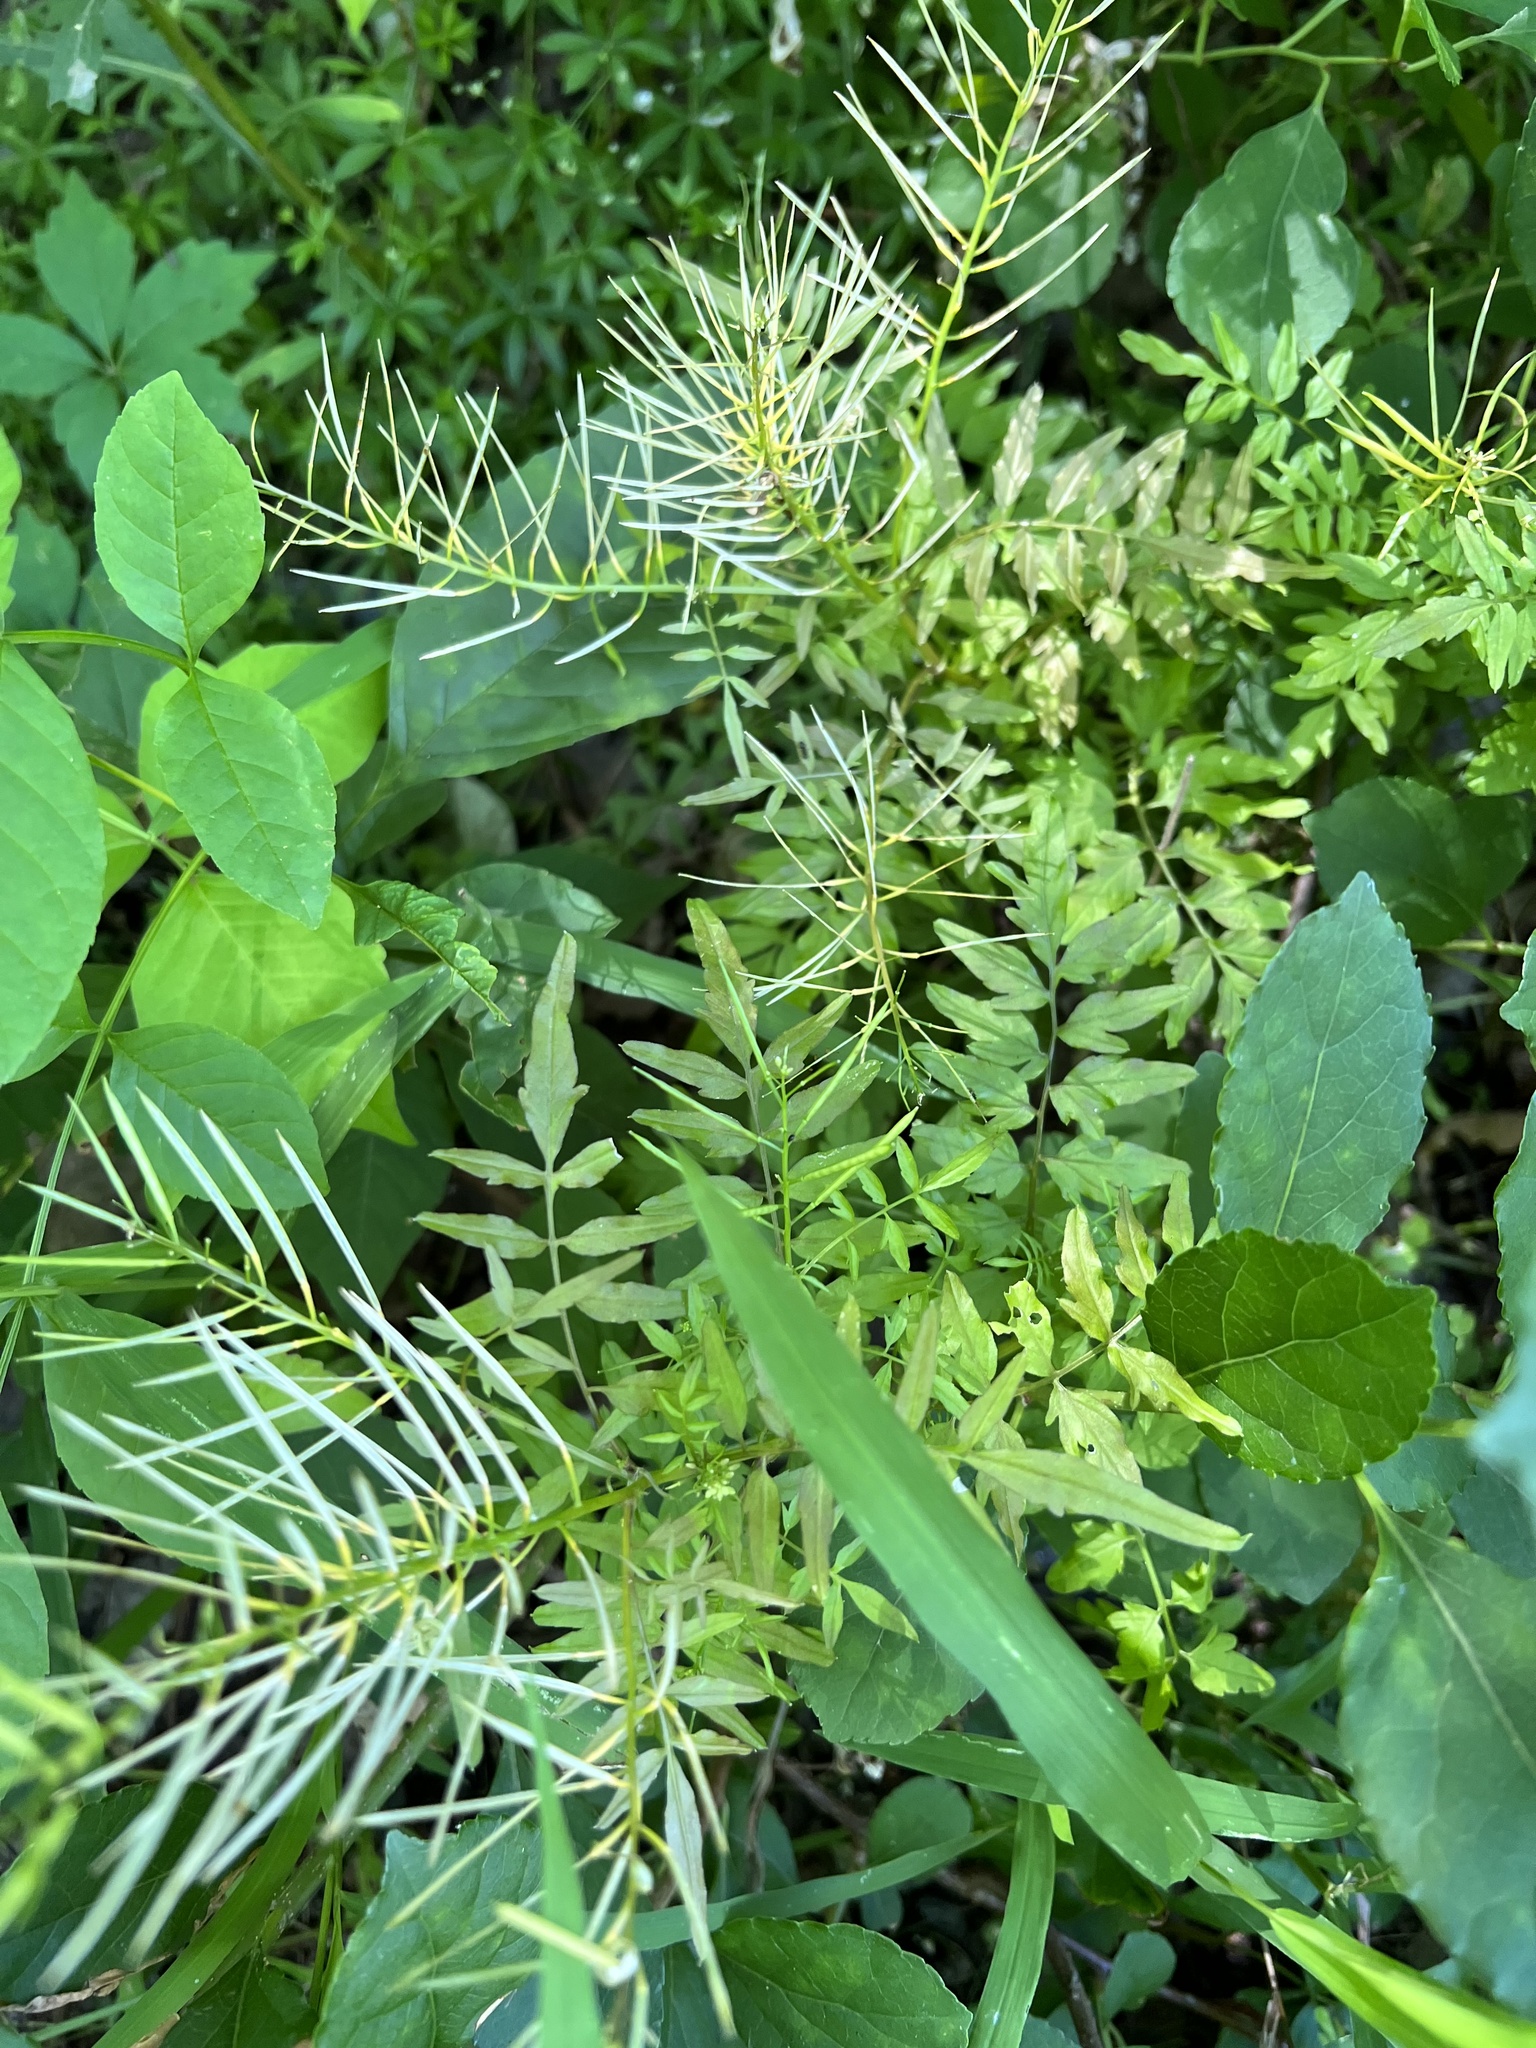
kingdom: Plantae
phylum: Tracheophyta
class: Magnoliopsida
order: Brassicales
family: Brassicaceae
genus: Cardamine
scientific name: Cardamine impatiens
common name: Narrow-leaved bitter-cress
